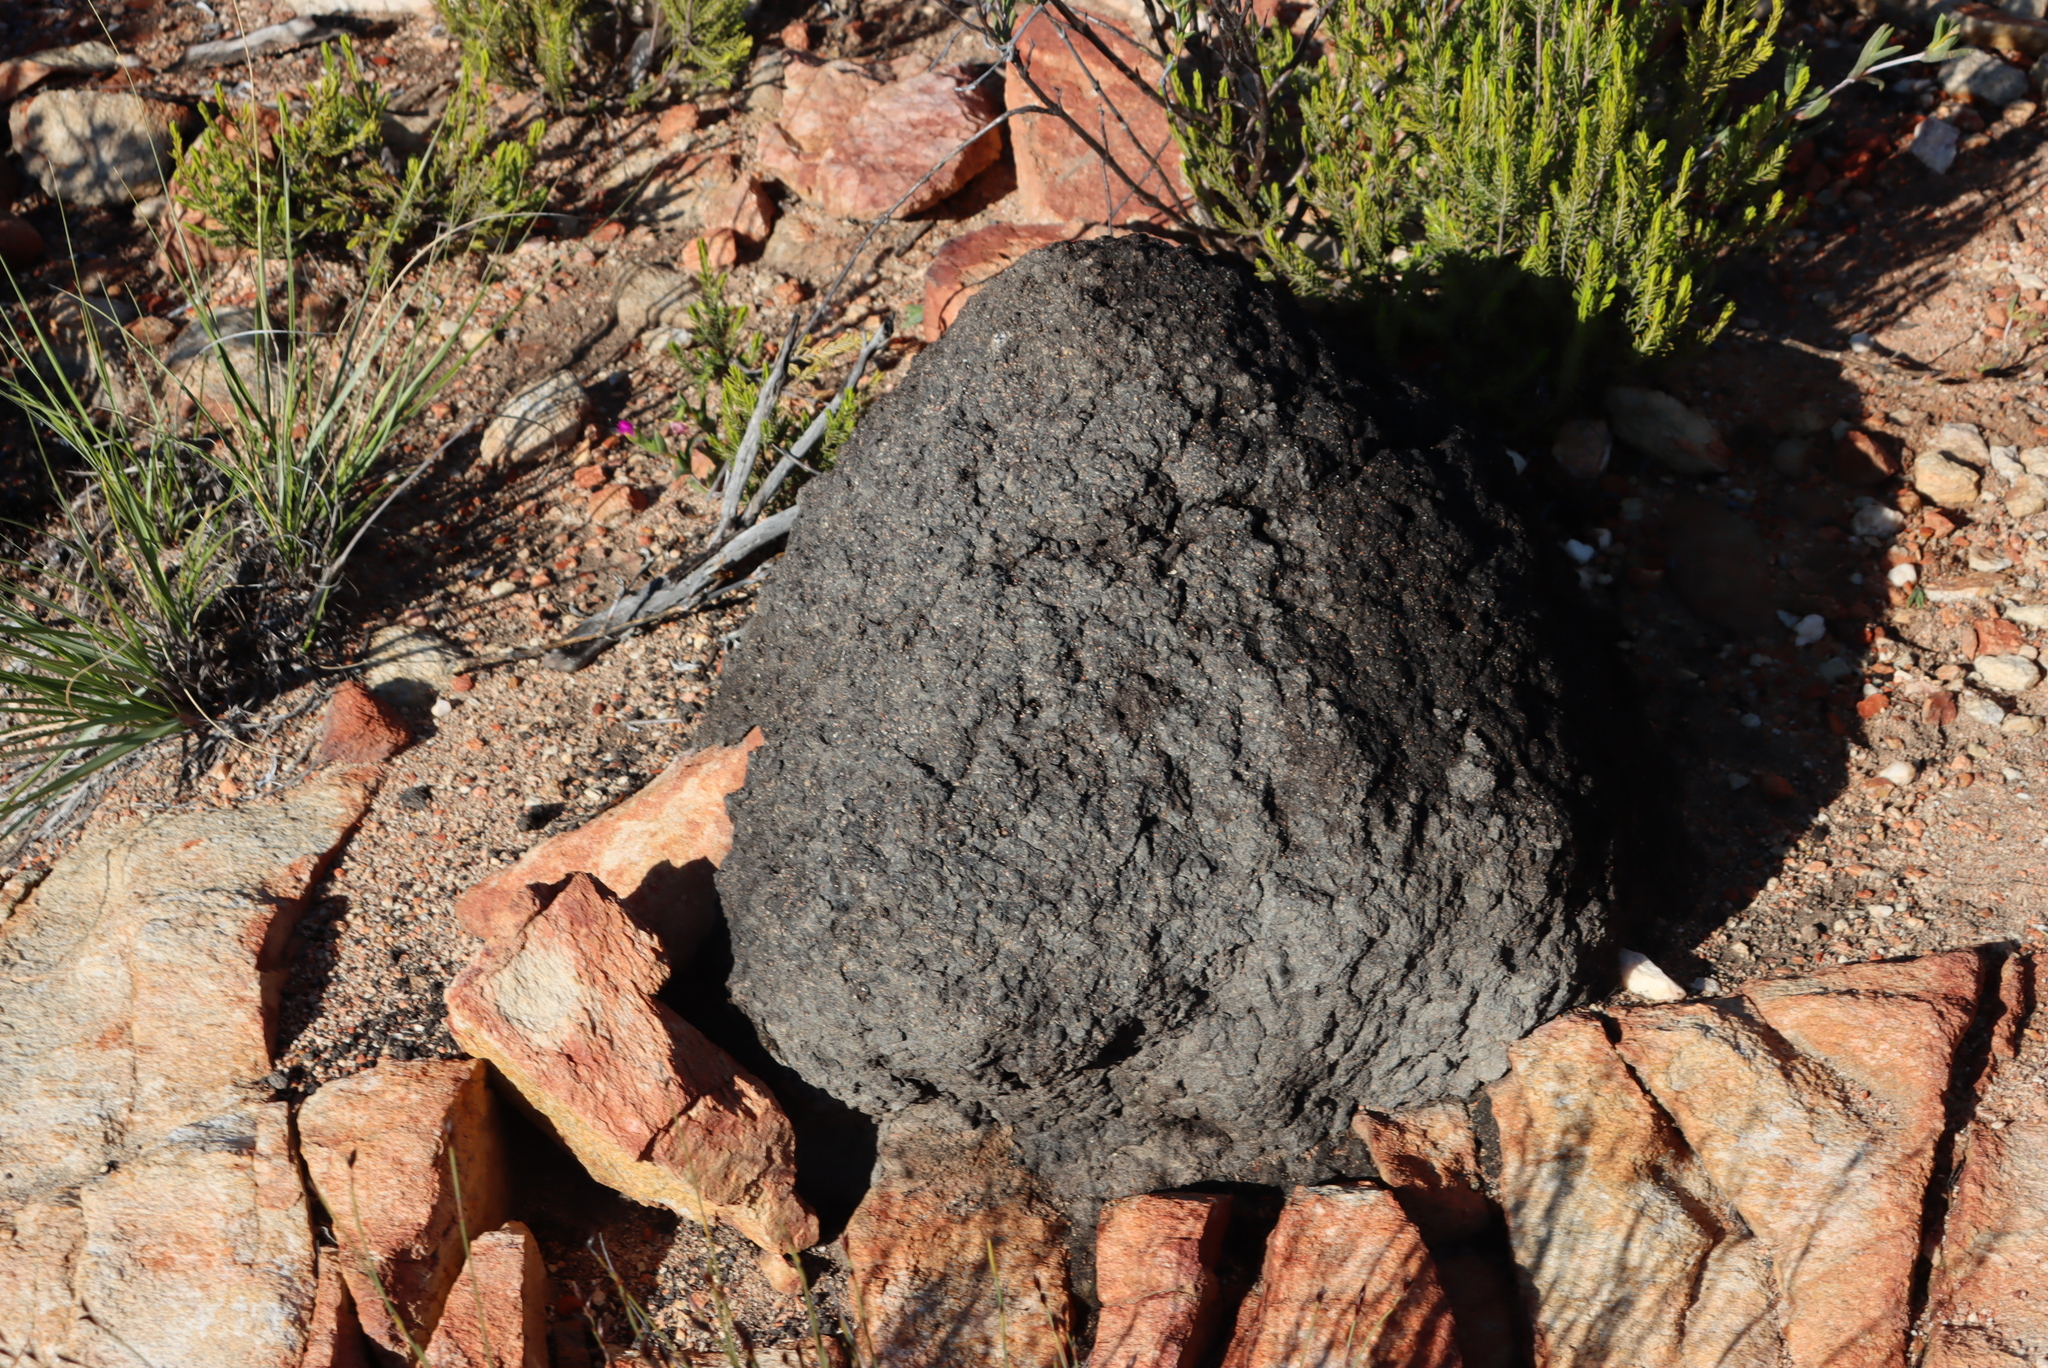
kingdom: Animalia
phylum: Arthropoda
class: Insecta
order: Blattodea
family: Termitidae
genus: Amitermes
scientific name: Amitermes hastatus
